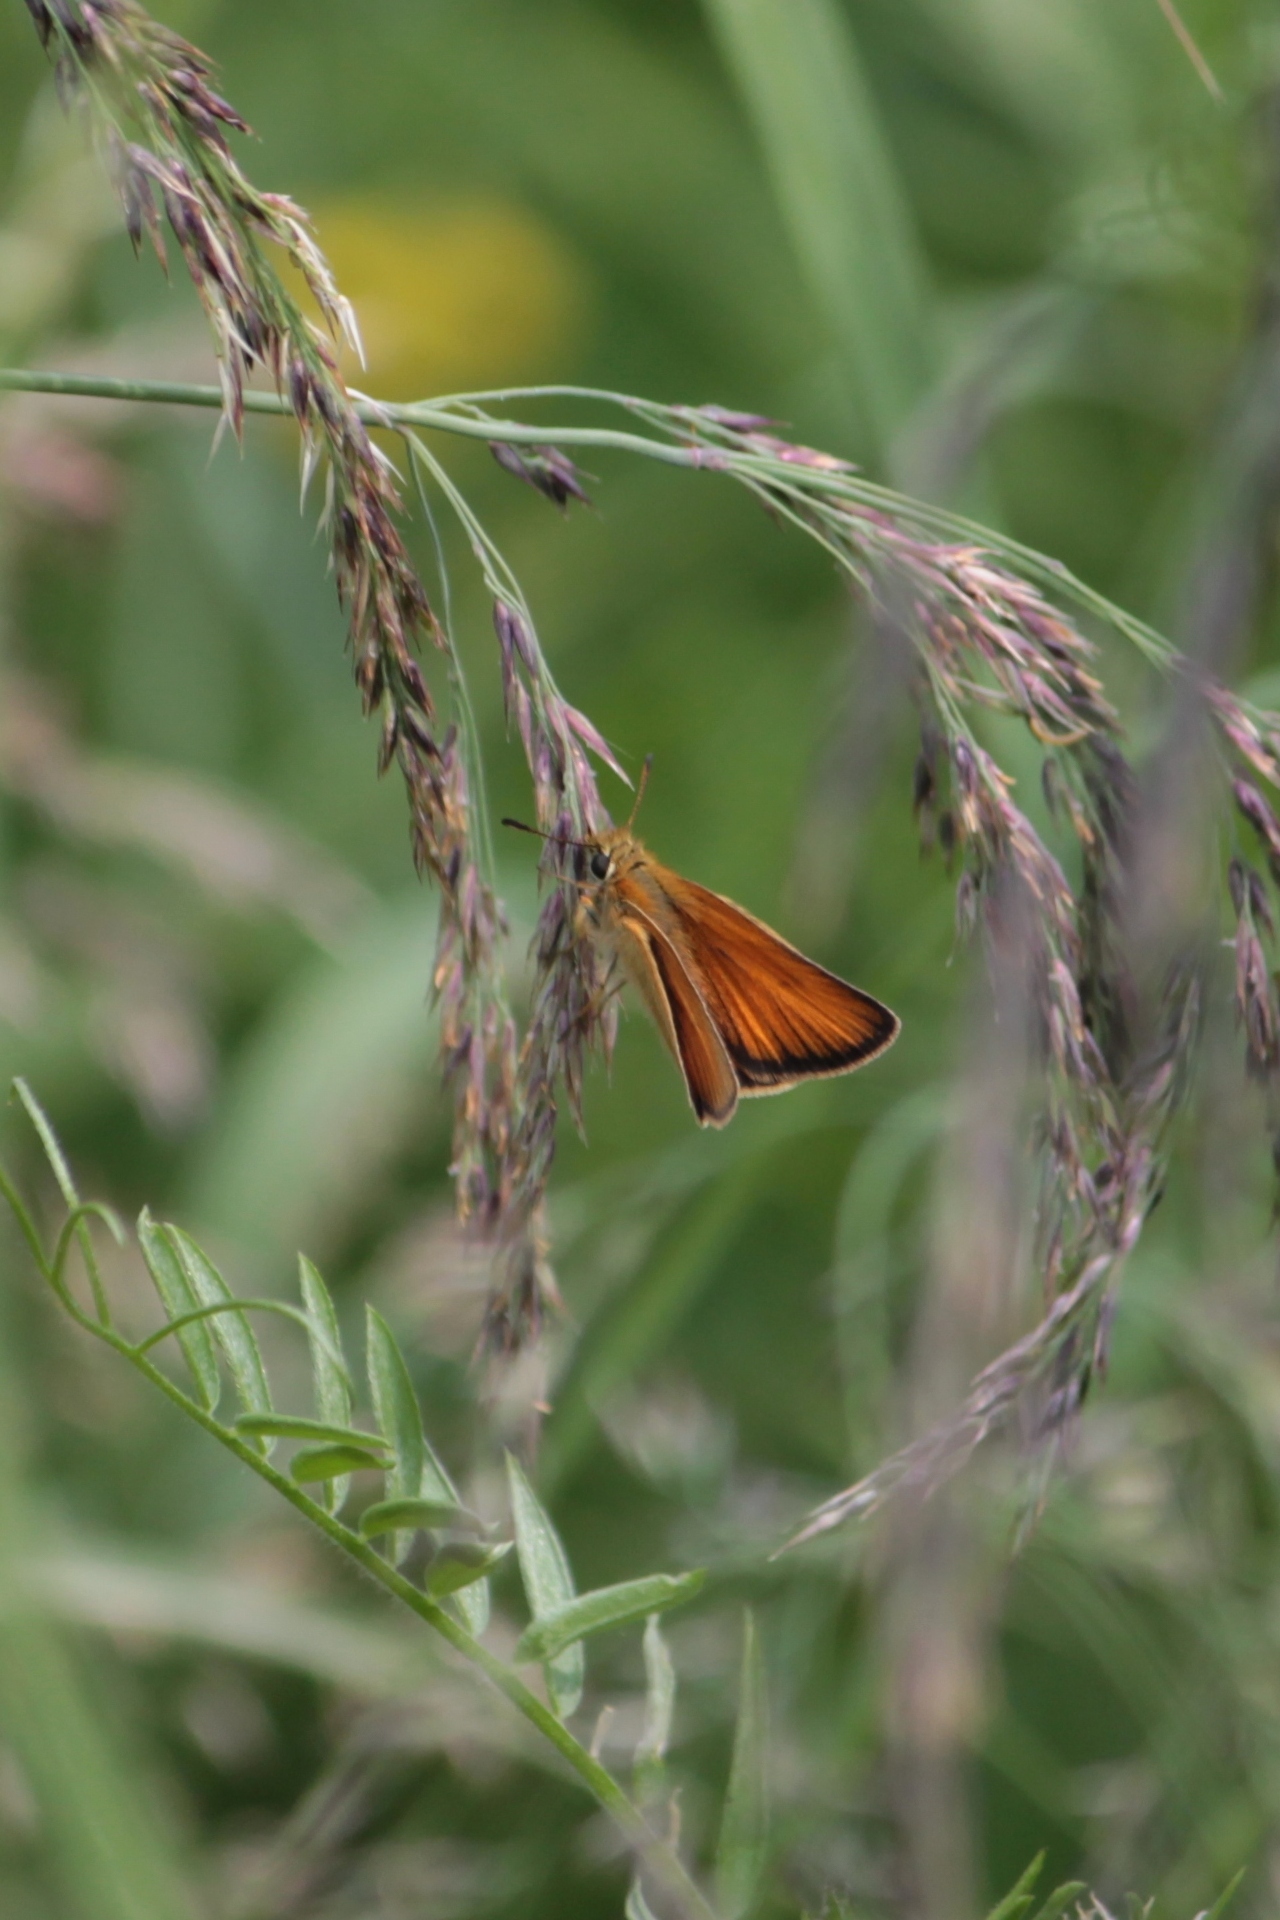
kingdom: Animalia
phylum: Arthropoda
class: Insecta
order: Lepidoptera
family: Hesperiidae
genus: Thymelicus
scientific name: Thymelicus lineola
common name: Essex skipper
